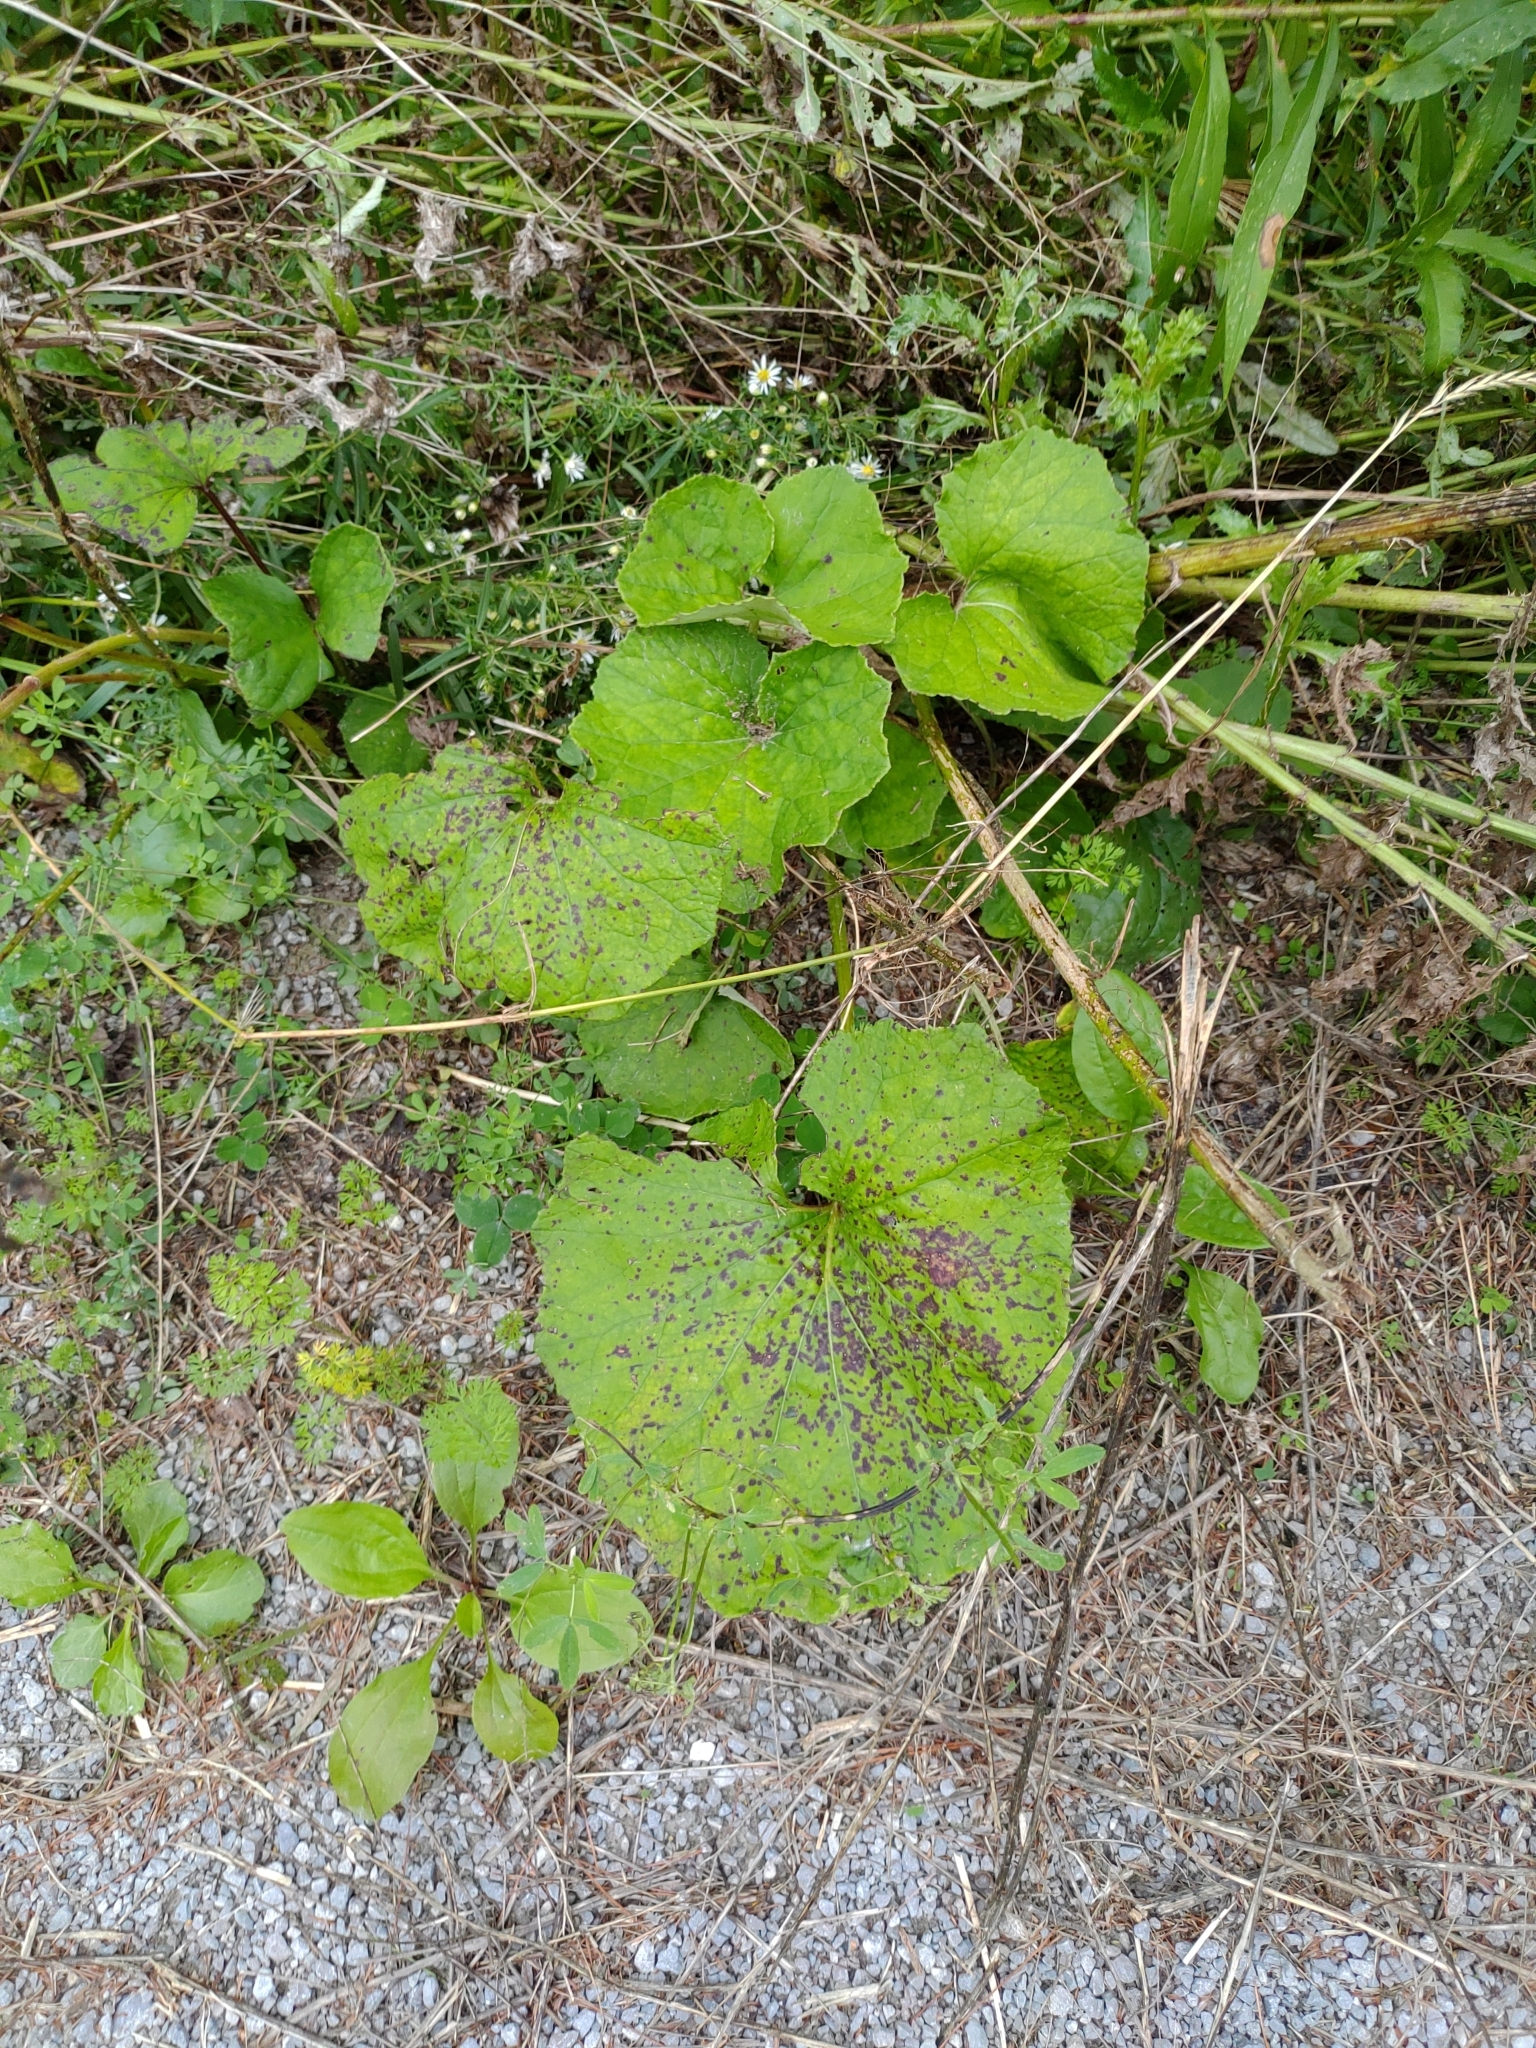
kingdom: Plantae
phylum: Tracheophyta
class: Magnoliopsida
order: Asterales
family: Asteraceae
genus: Tussilago
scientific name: Tussilago farfara
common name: Coltsfoot
